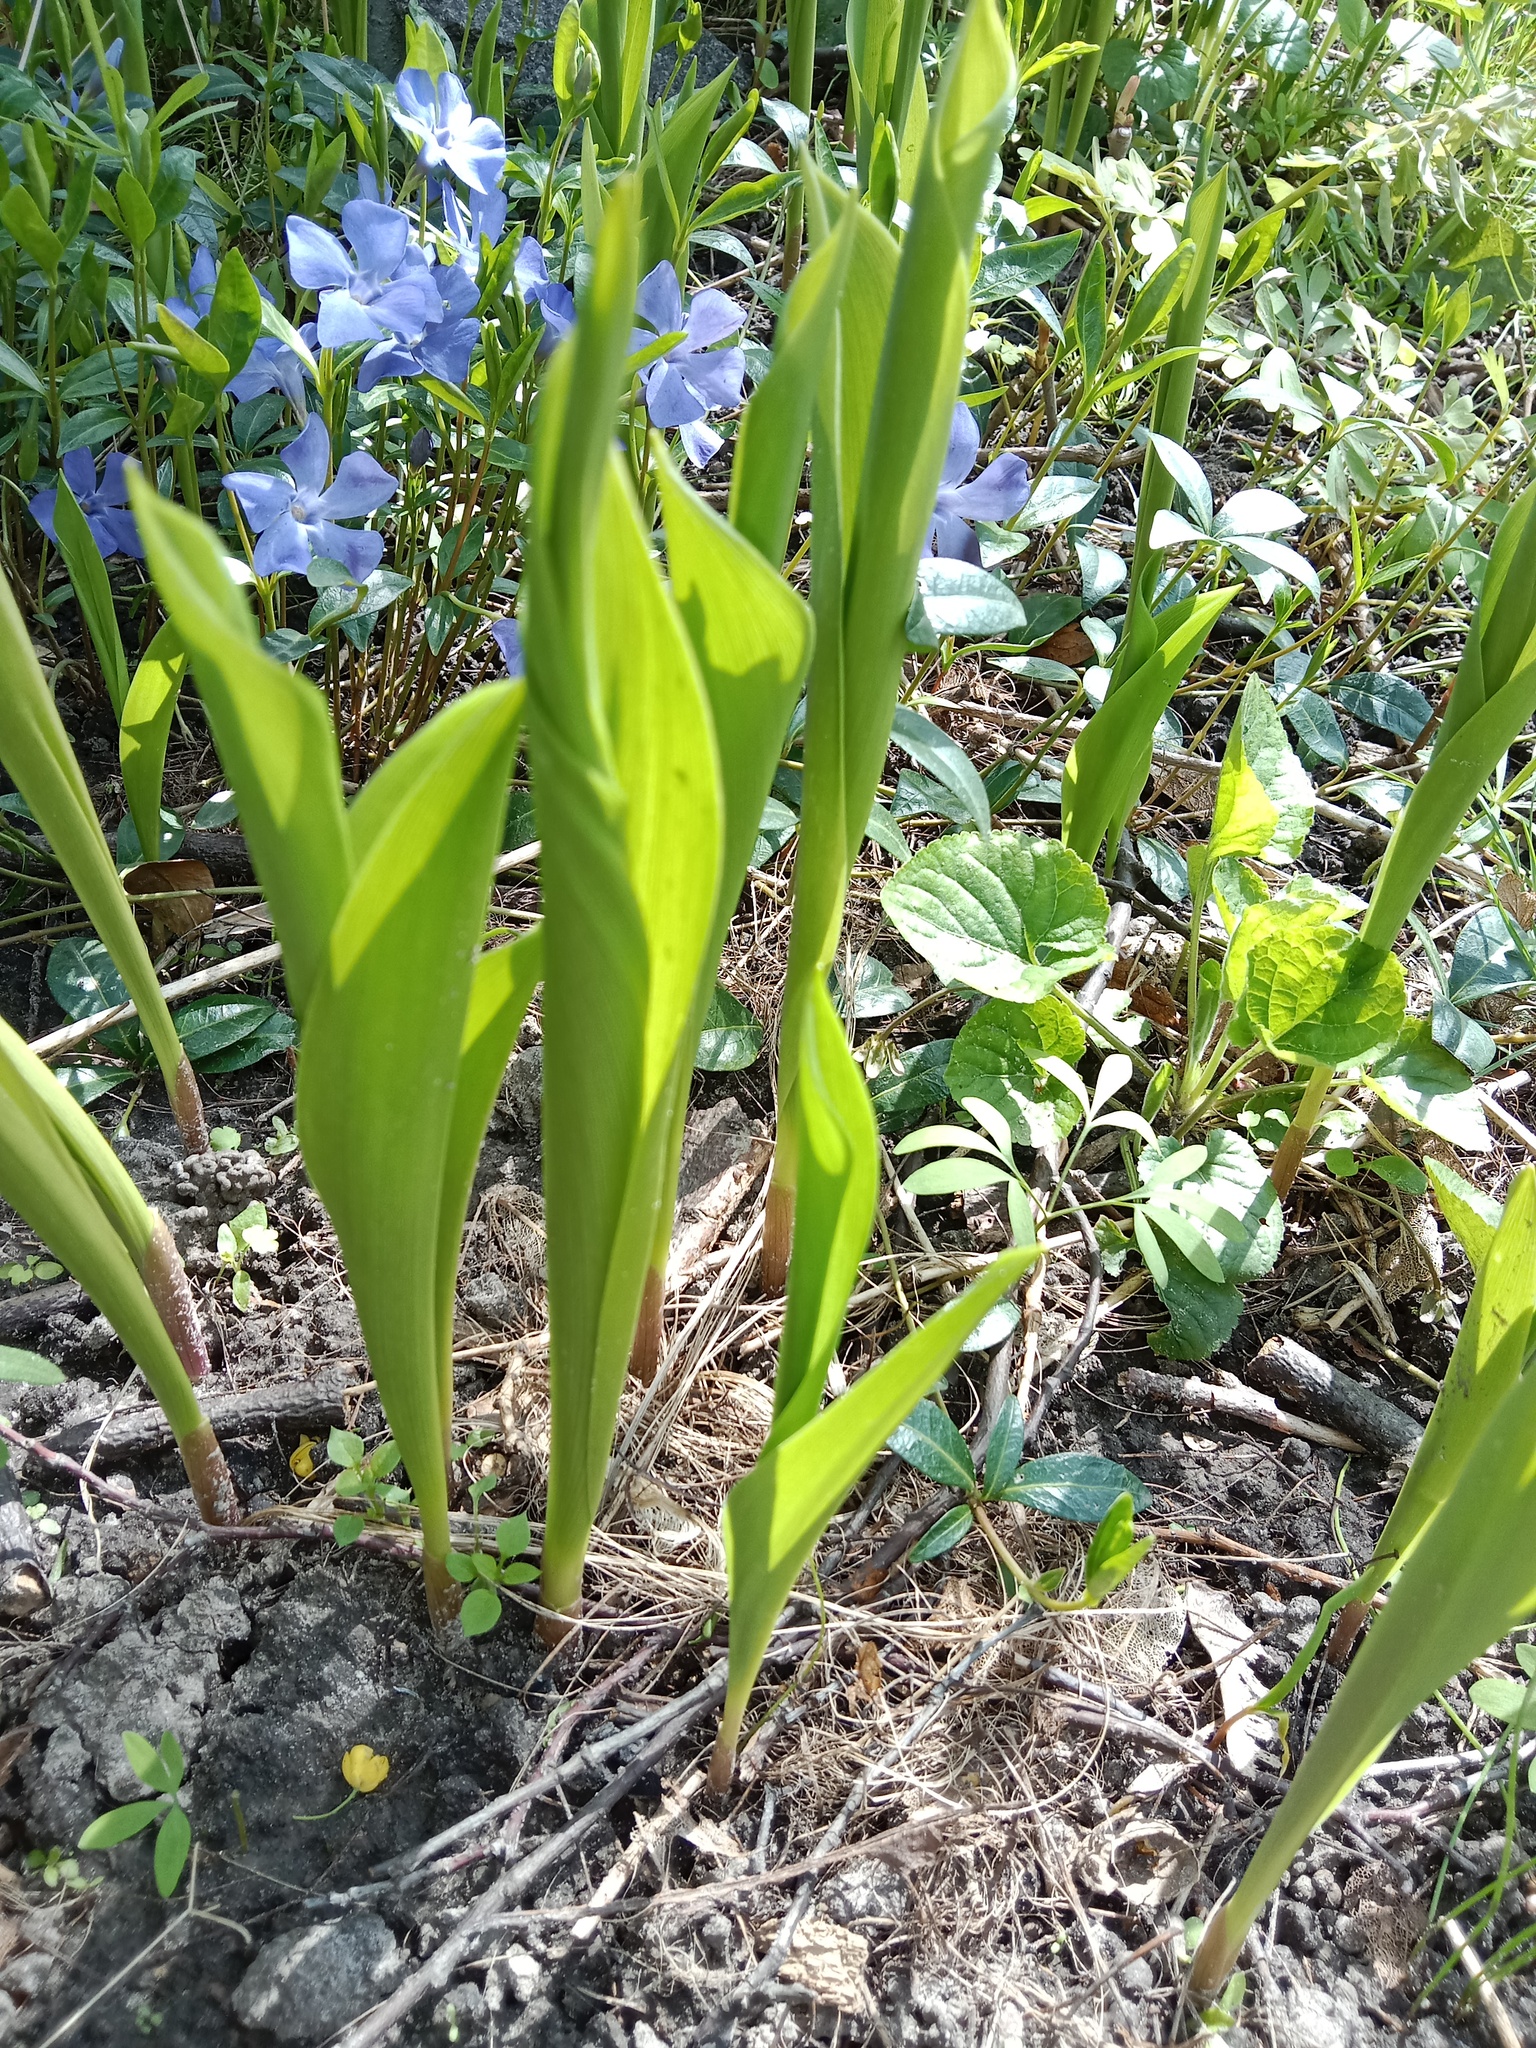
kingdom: Plantae
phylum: Tracheophyta
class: Liliopsida
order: Asparagales
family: Asparagaceae
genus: Convallaria
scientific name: Convallaria majalis
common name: Lily-of-the-valley
